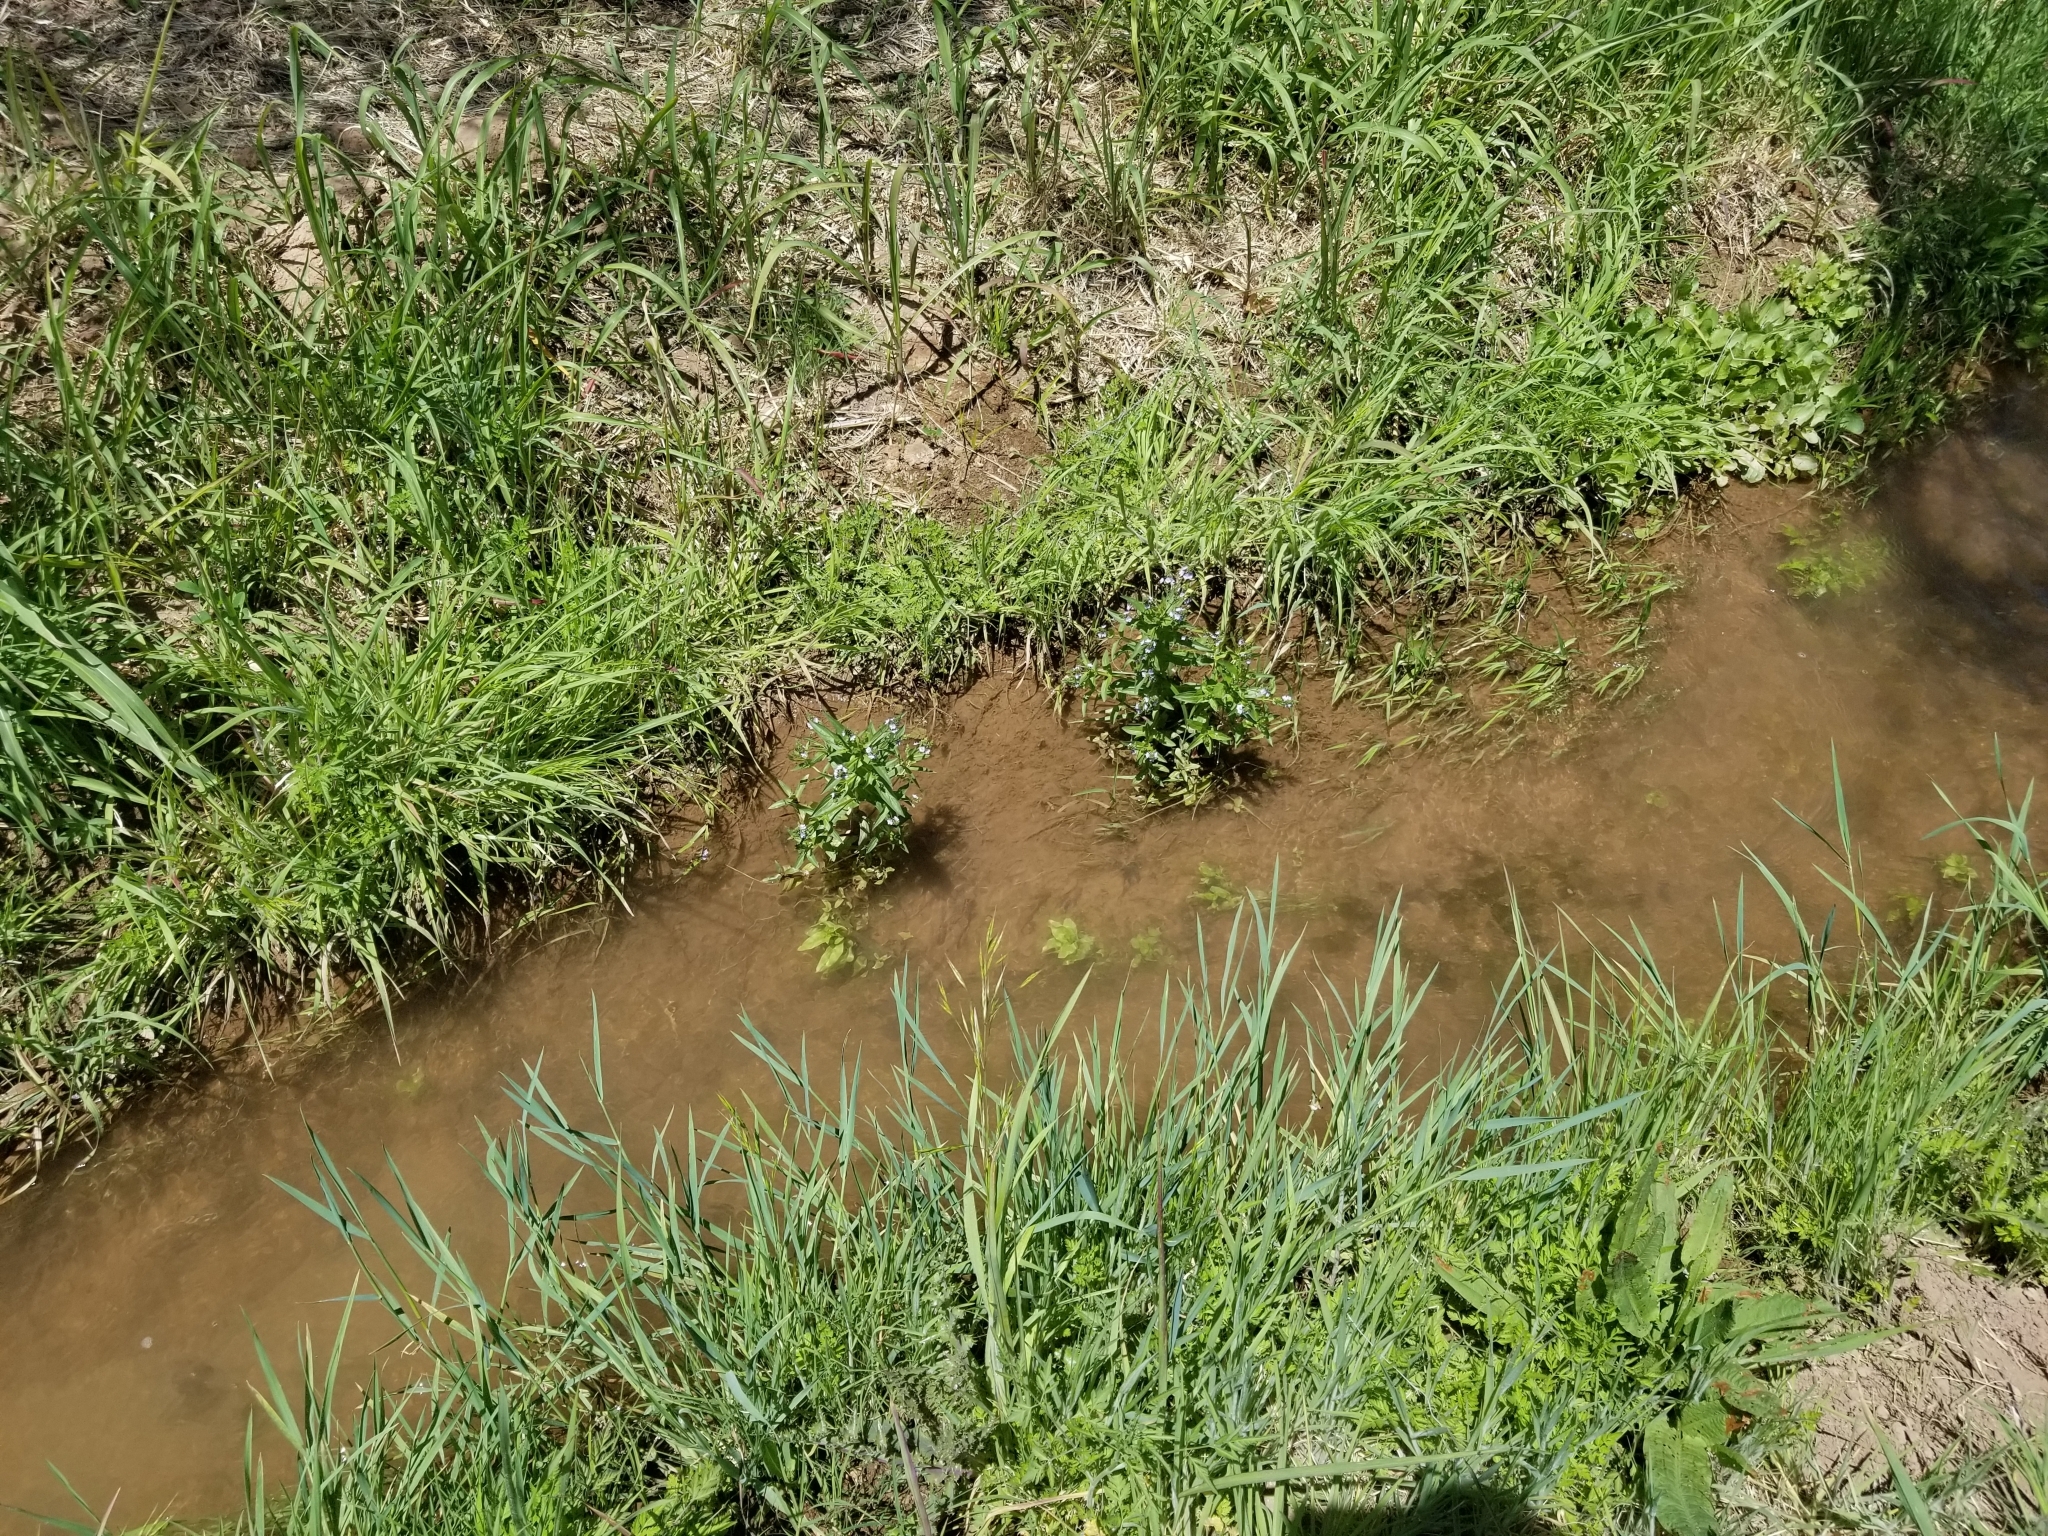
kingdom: Plantae
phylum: Tracheophyta
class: Magnoliopsida
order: Lamiales
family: Plantaginaceae
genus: Veronica
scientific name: Veronica anagallis-aquatica
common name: Water speedwell
